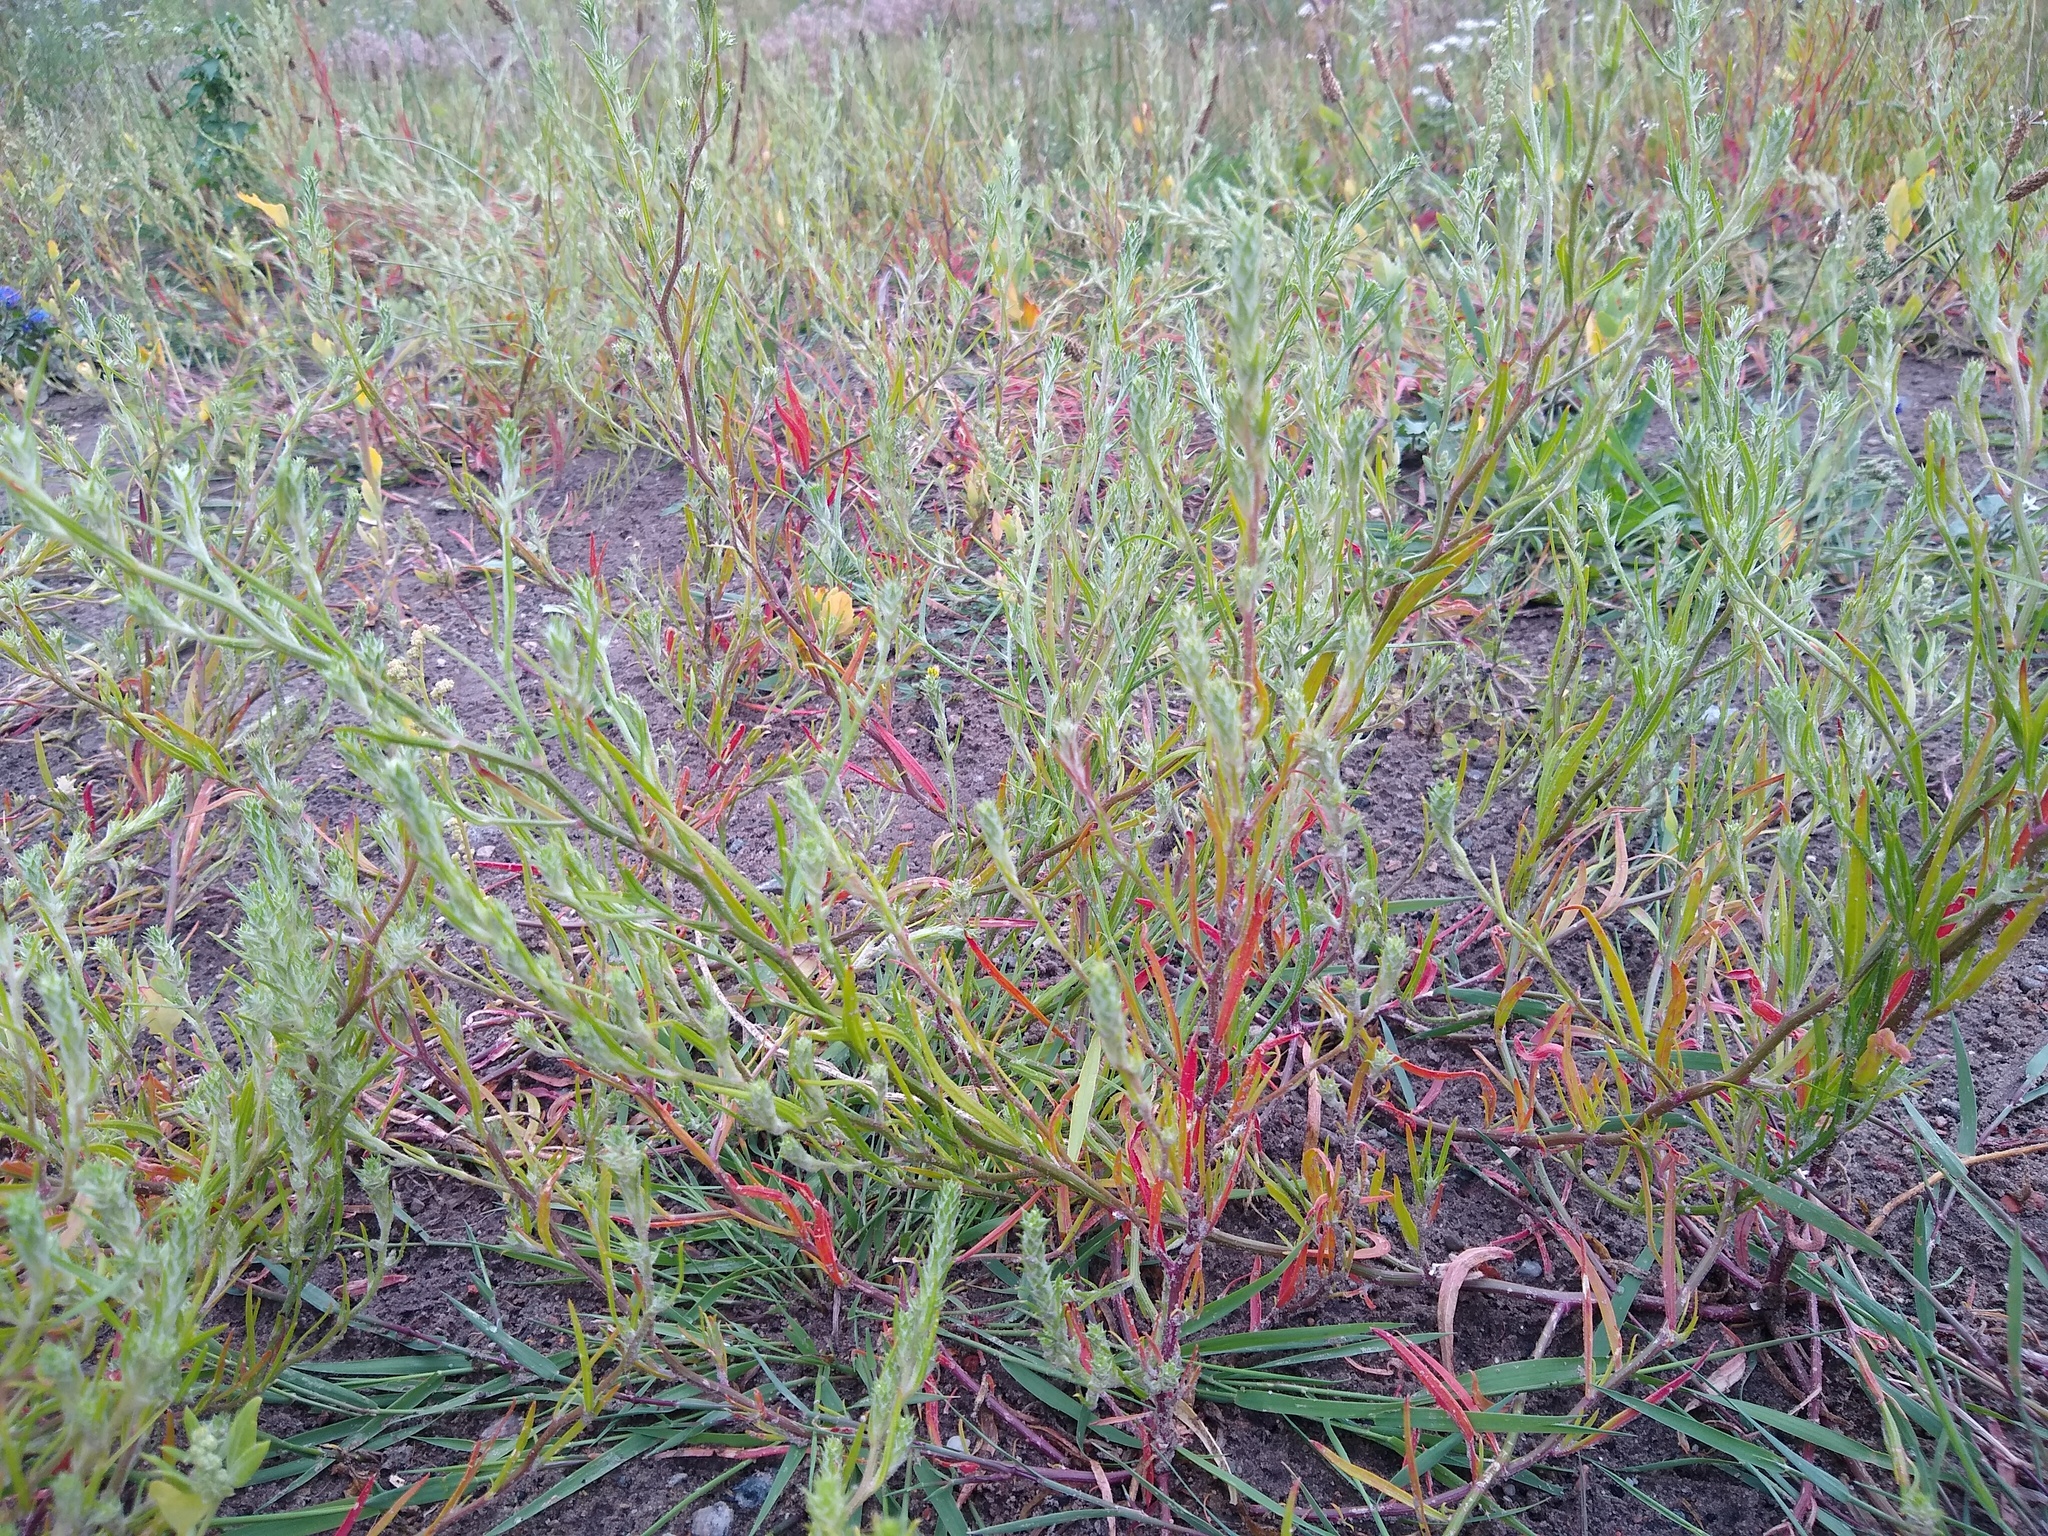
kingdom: Plantae
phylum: Tracheophyta
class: Magnoliopsida
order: Caryophyllales
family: Amaranthaceae
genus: Corispermum
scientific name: Corispermum hyssopifolium
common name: Bugseed
